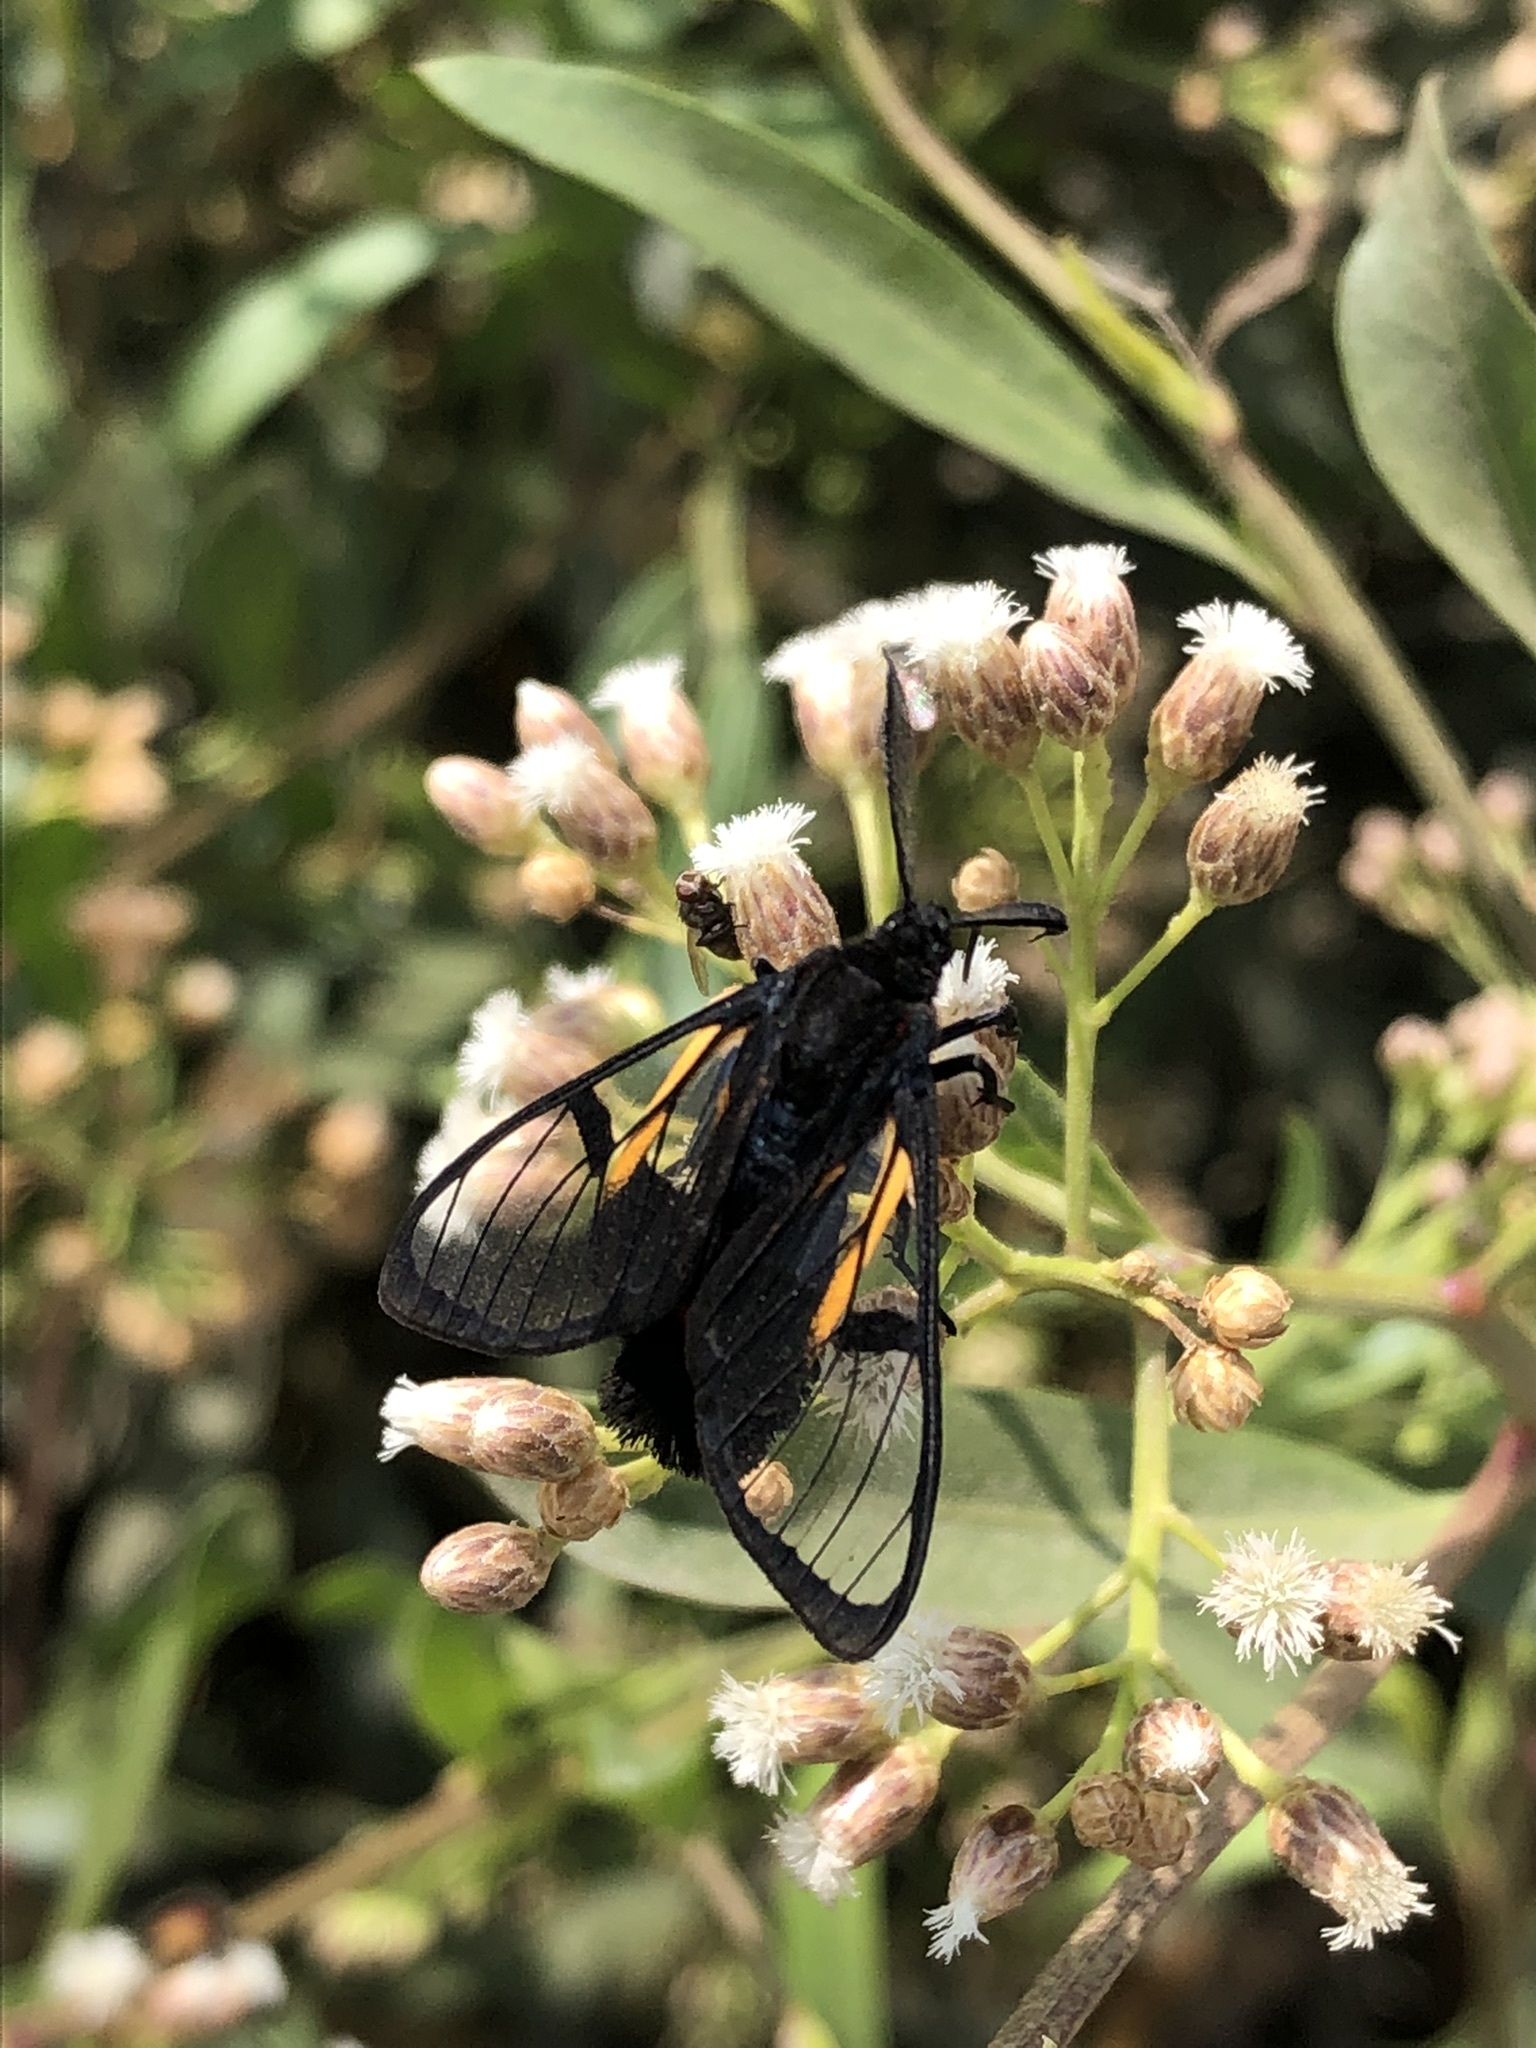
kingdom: Animalia
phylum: Arthropoda
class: Insecta
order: Lepidoptera
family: Erebidae
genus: Dinia
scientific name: Dinia subapicalis
